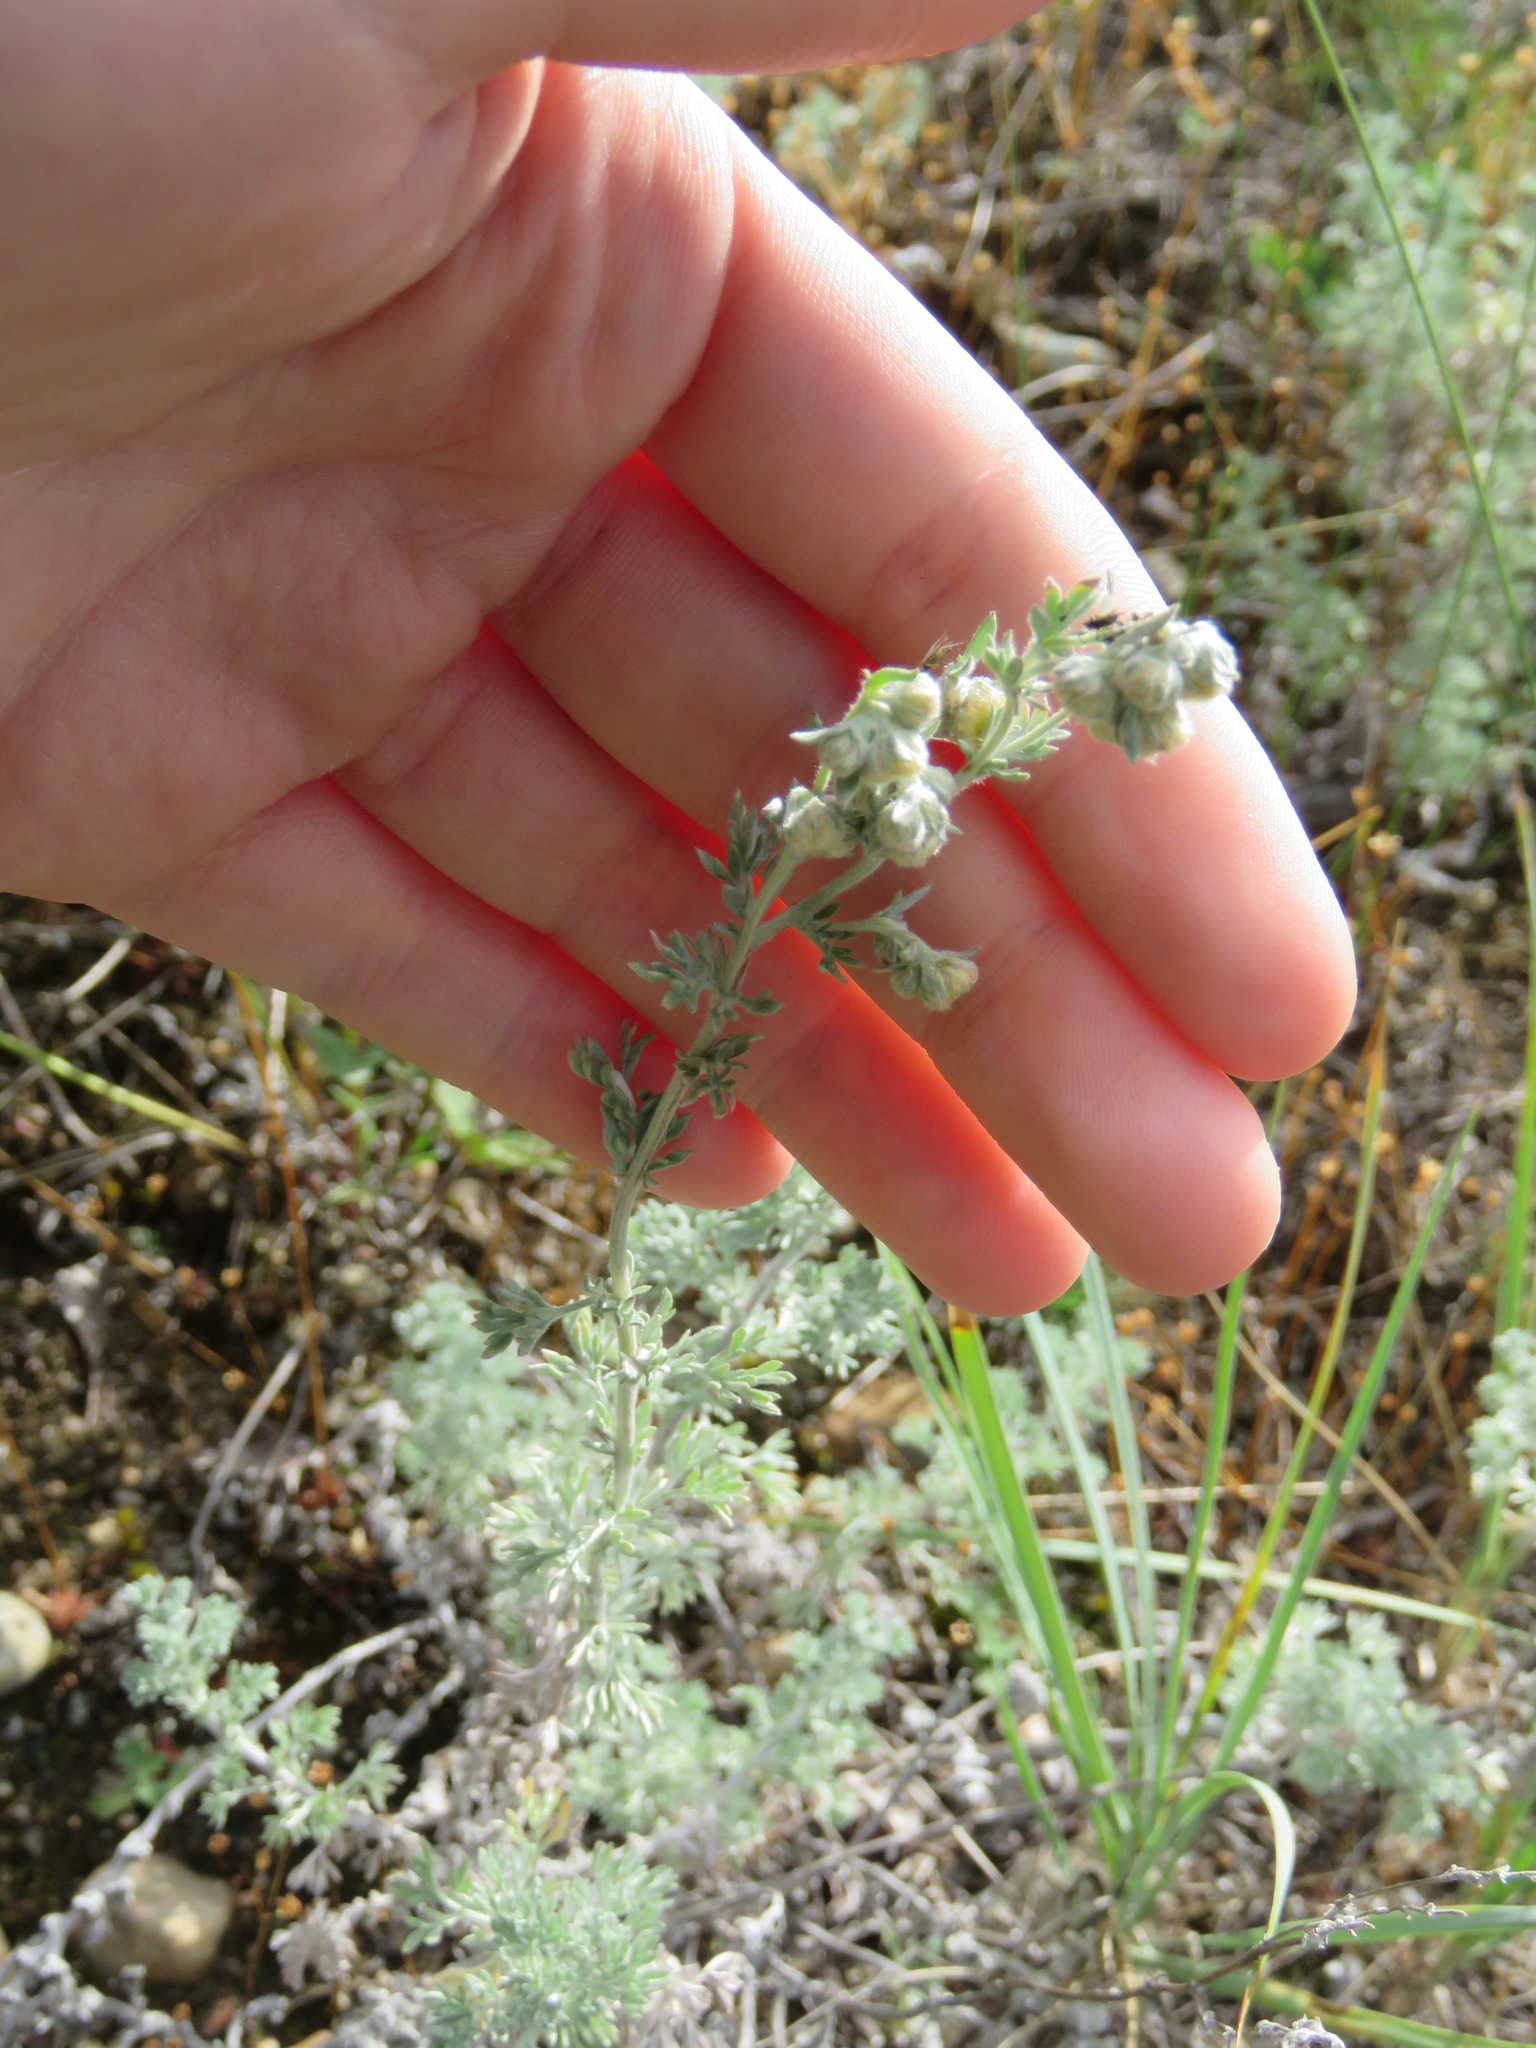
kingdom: Plantae
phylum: Tracheophyta
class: Magnoliopsida
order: Asterales
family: Asteraceae
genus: Artemisia
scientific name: Artemisia frigida
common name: Prairie sagewort
